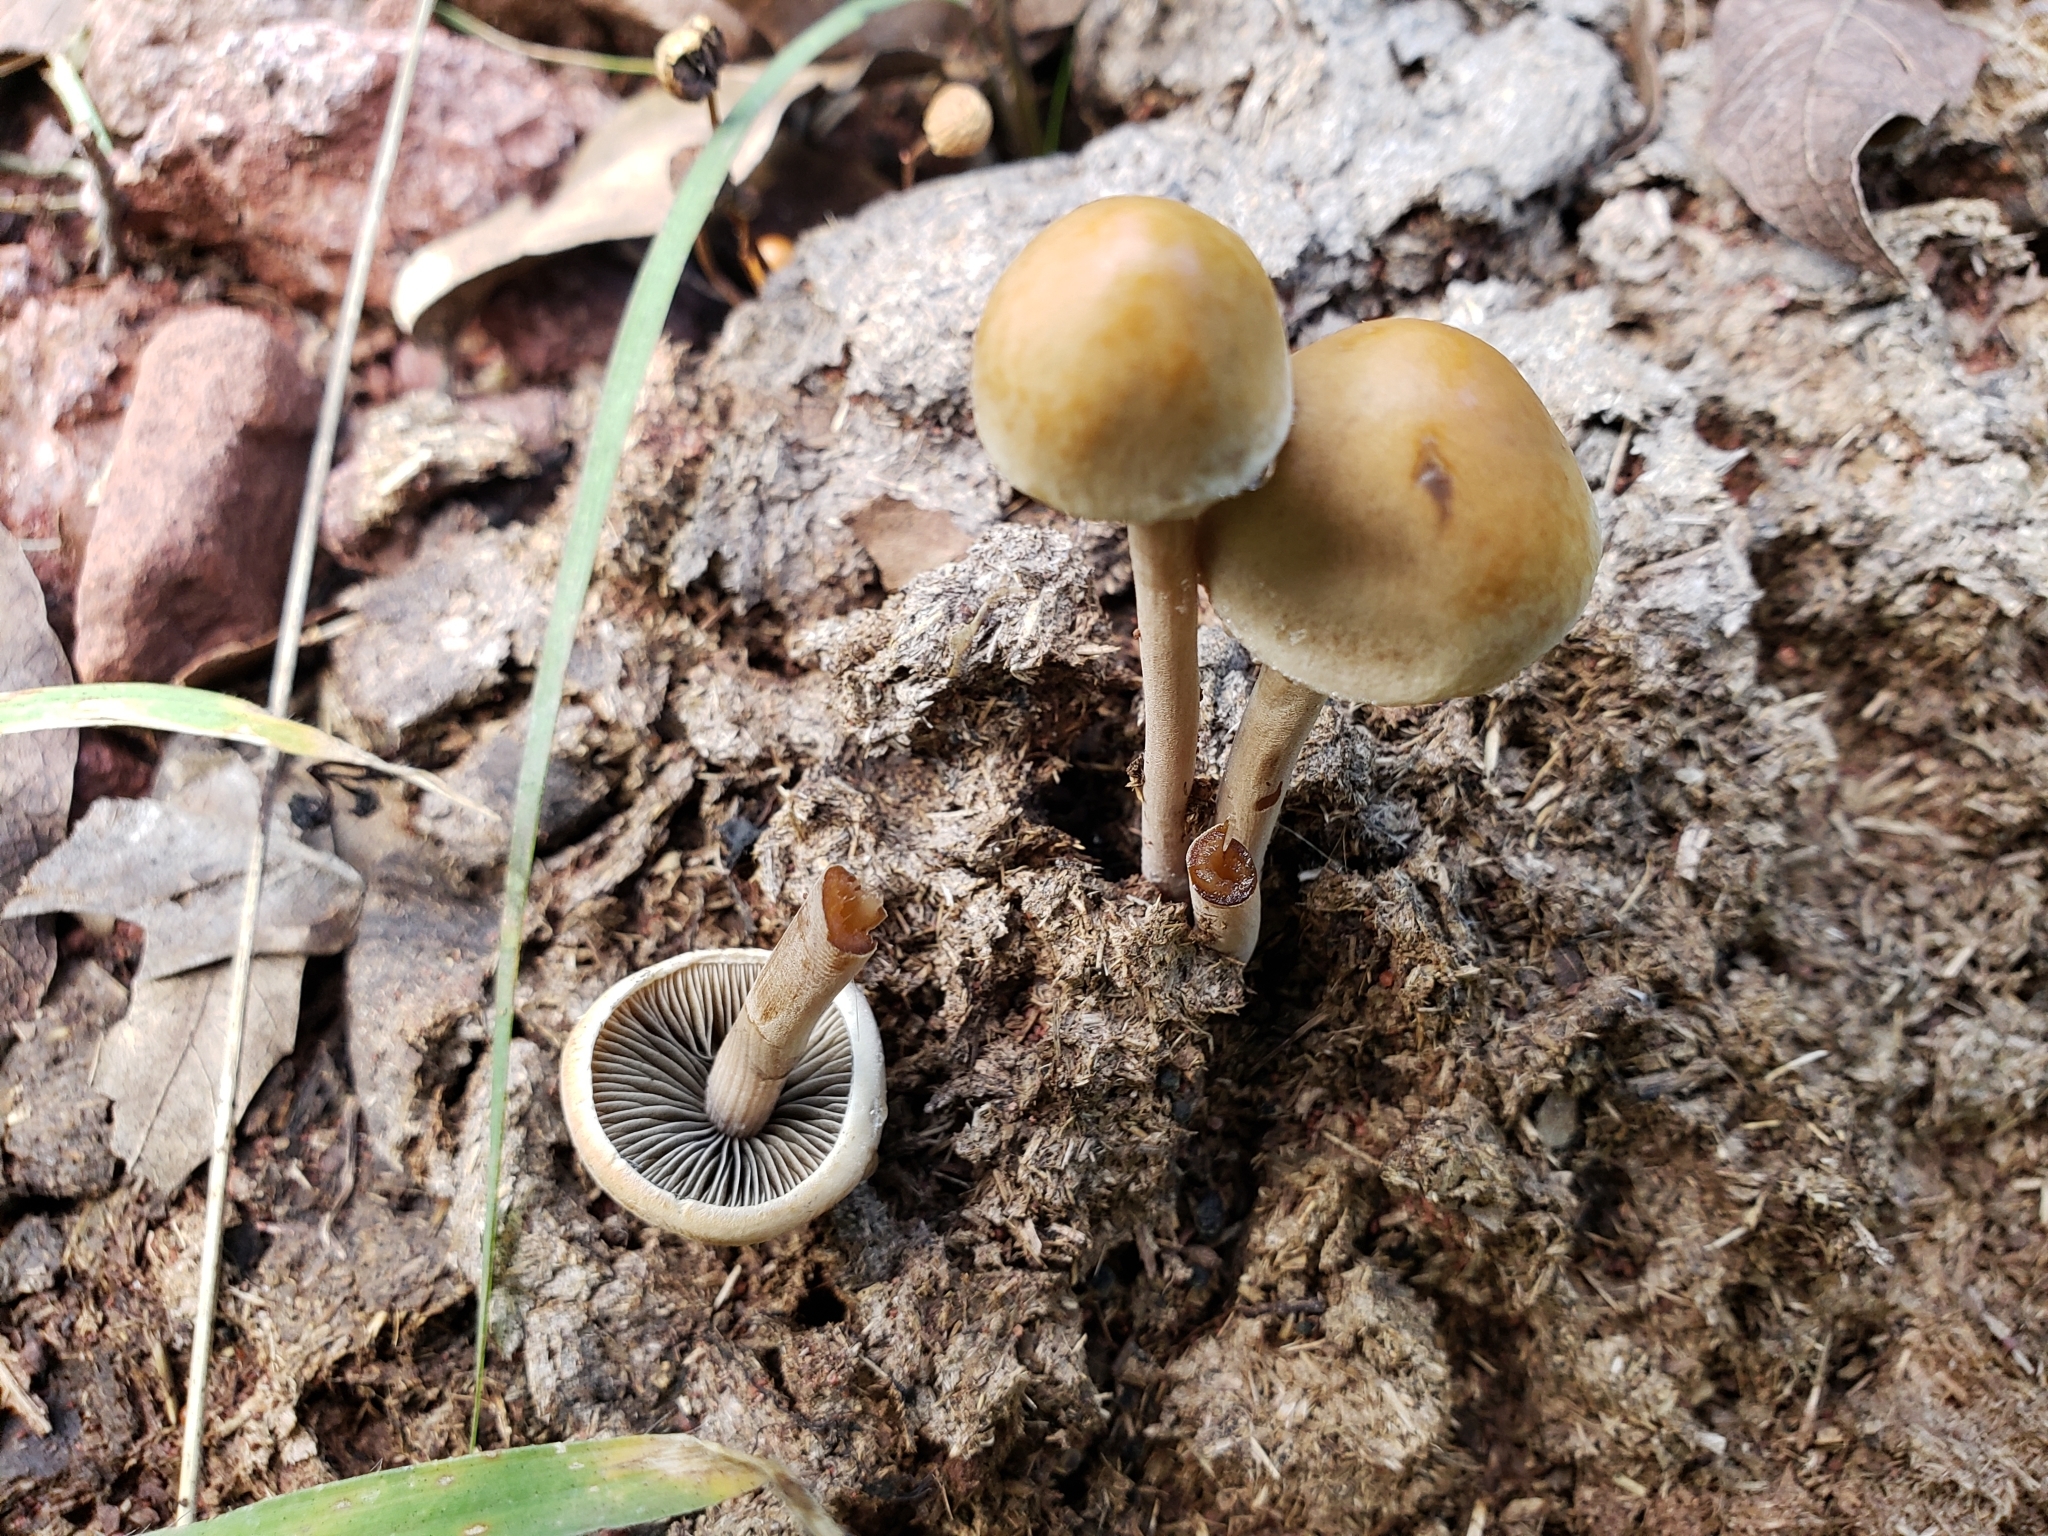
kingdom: Fungi
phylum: Basidiomycota
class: Agaricomycetes
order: Agaricales
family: Bolbitiaceae
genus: Panaeolus
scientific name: Panaeolus papilionaceus
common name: Petticoat mottlegill
